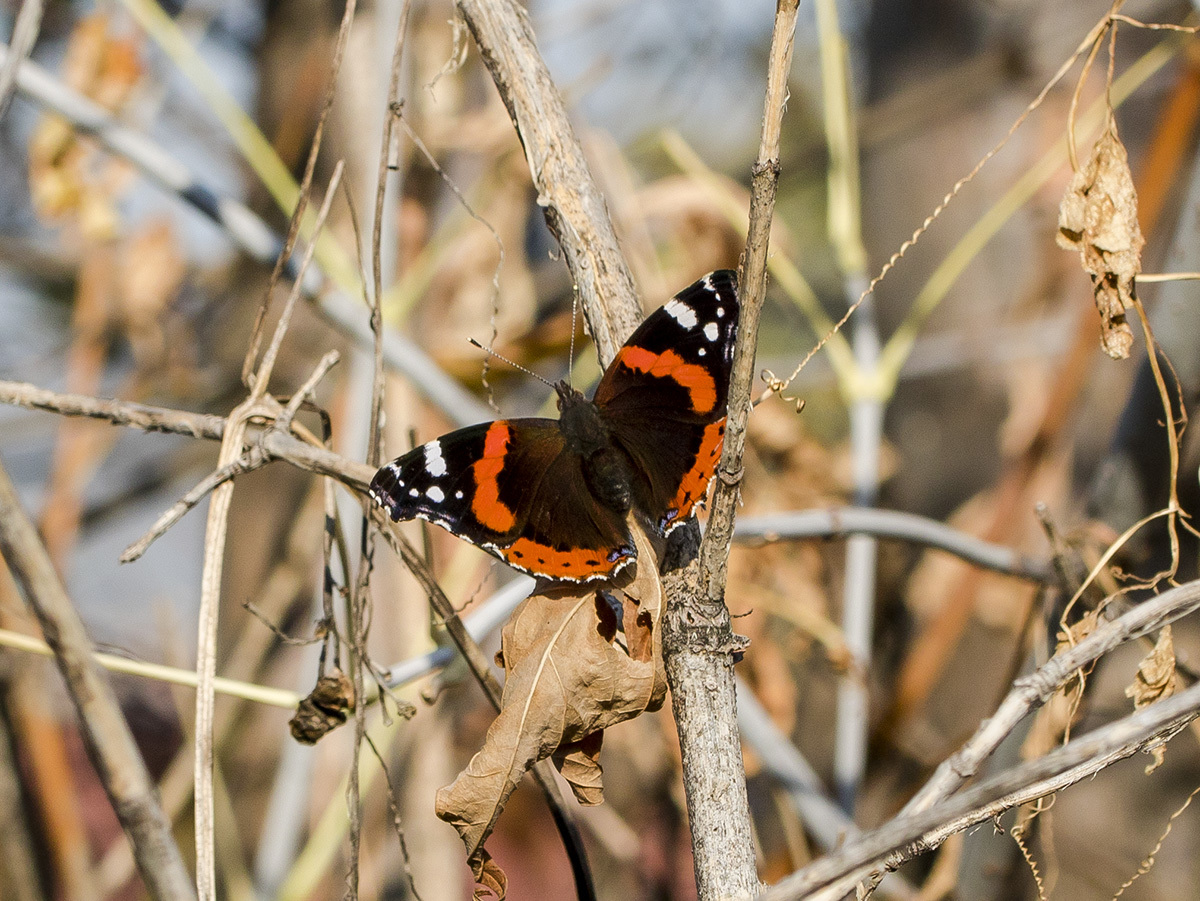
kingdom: Animalia
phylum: Arthropoda
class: Insecta
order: Lepidoptera
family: Nymphalidae
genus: Vanessa
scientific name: Vanessa atalanta
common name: Red admiral
